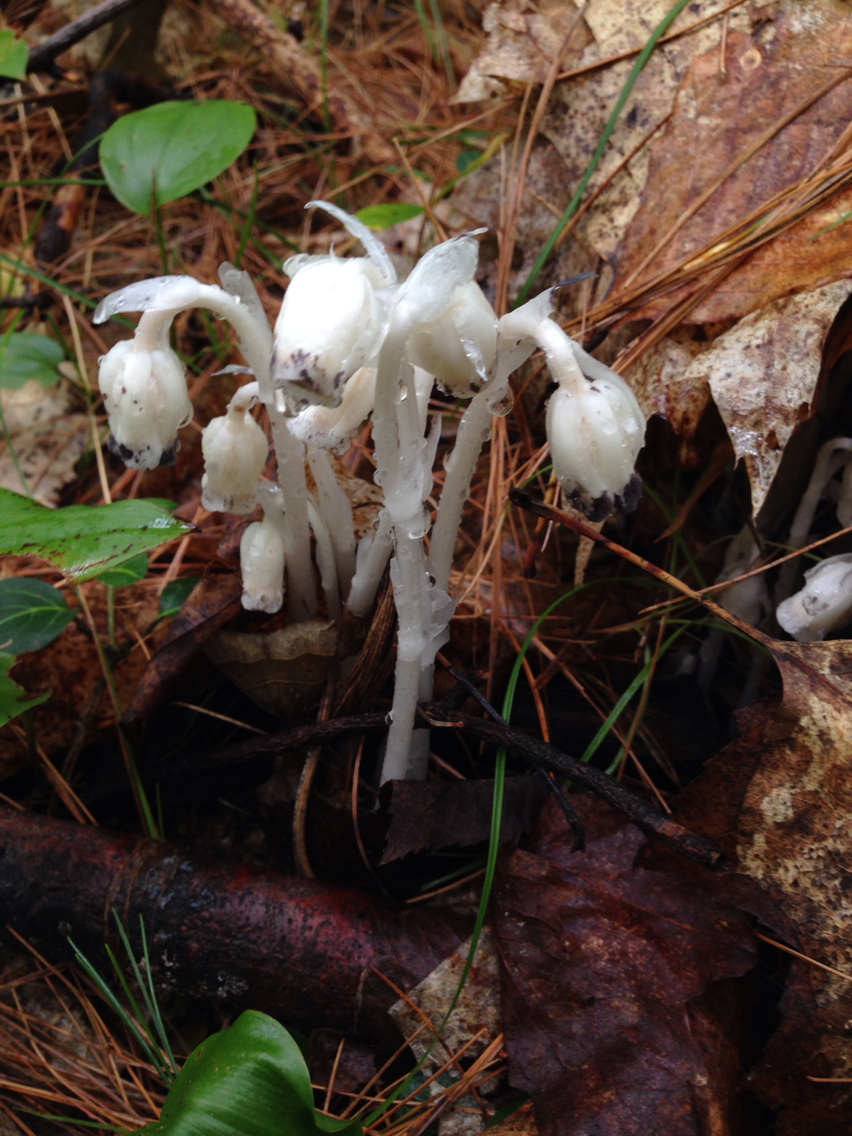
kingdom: Plantae
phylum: Tracheophyta
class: Magnoliopsida
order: Ericales
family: Ericaceae
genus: Monotropa
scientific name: Monotropa uniflora
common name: Convulsion root
